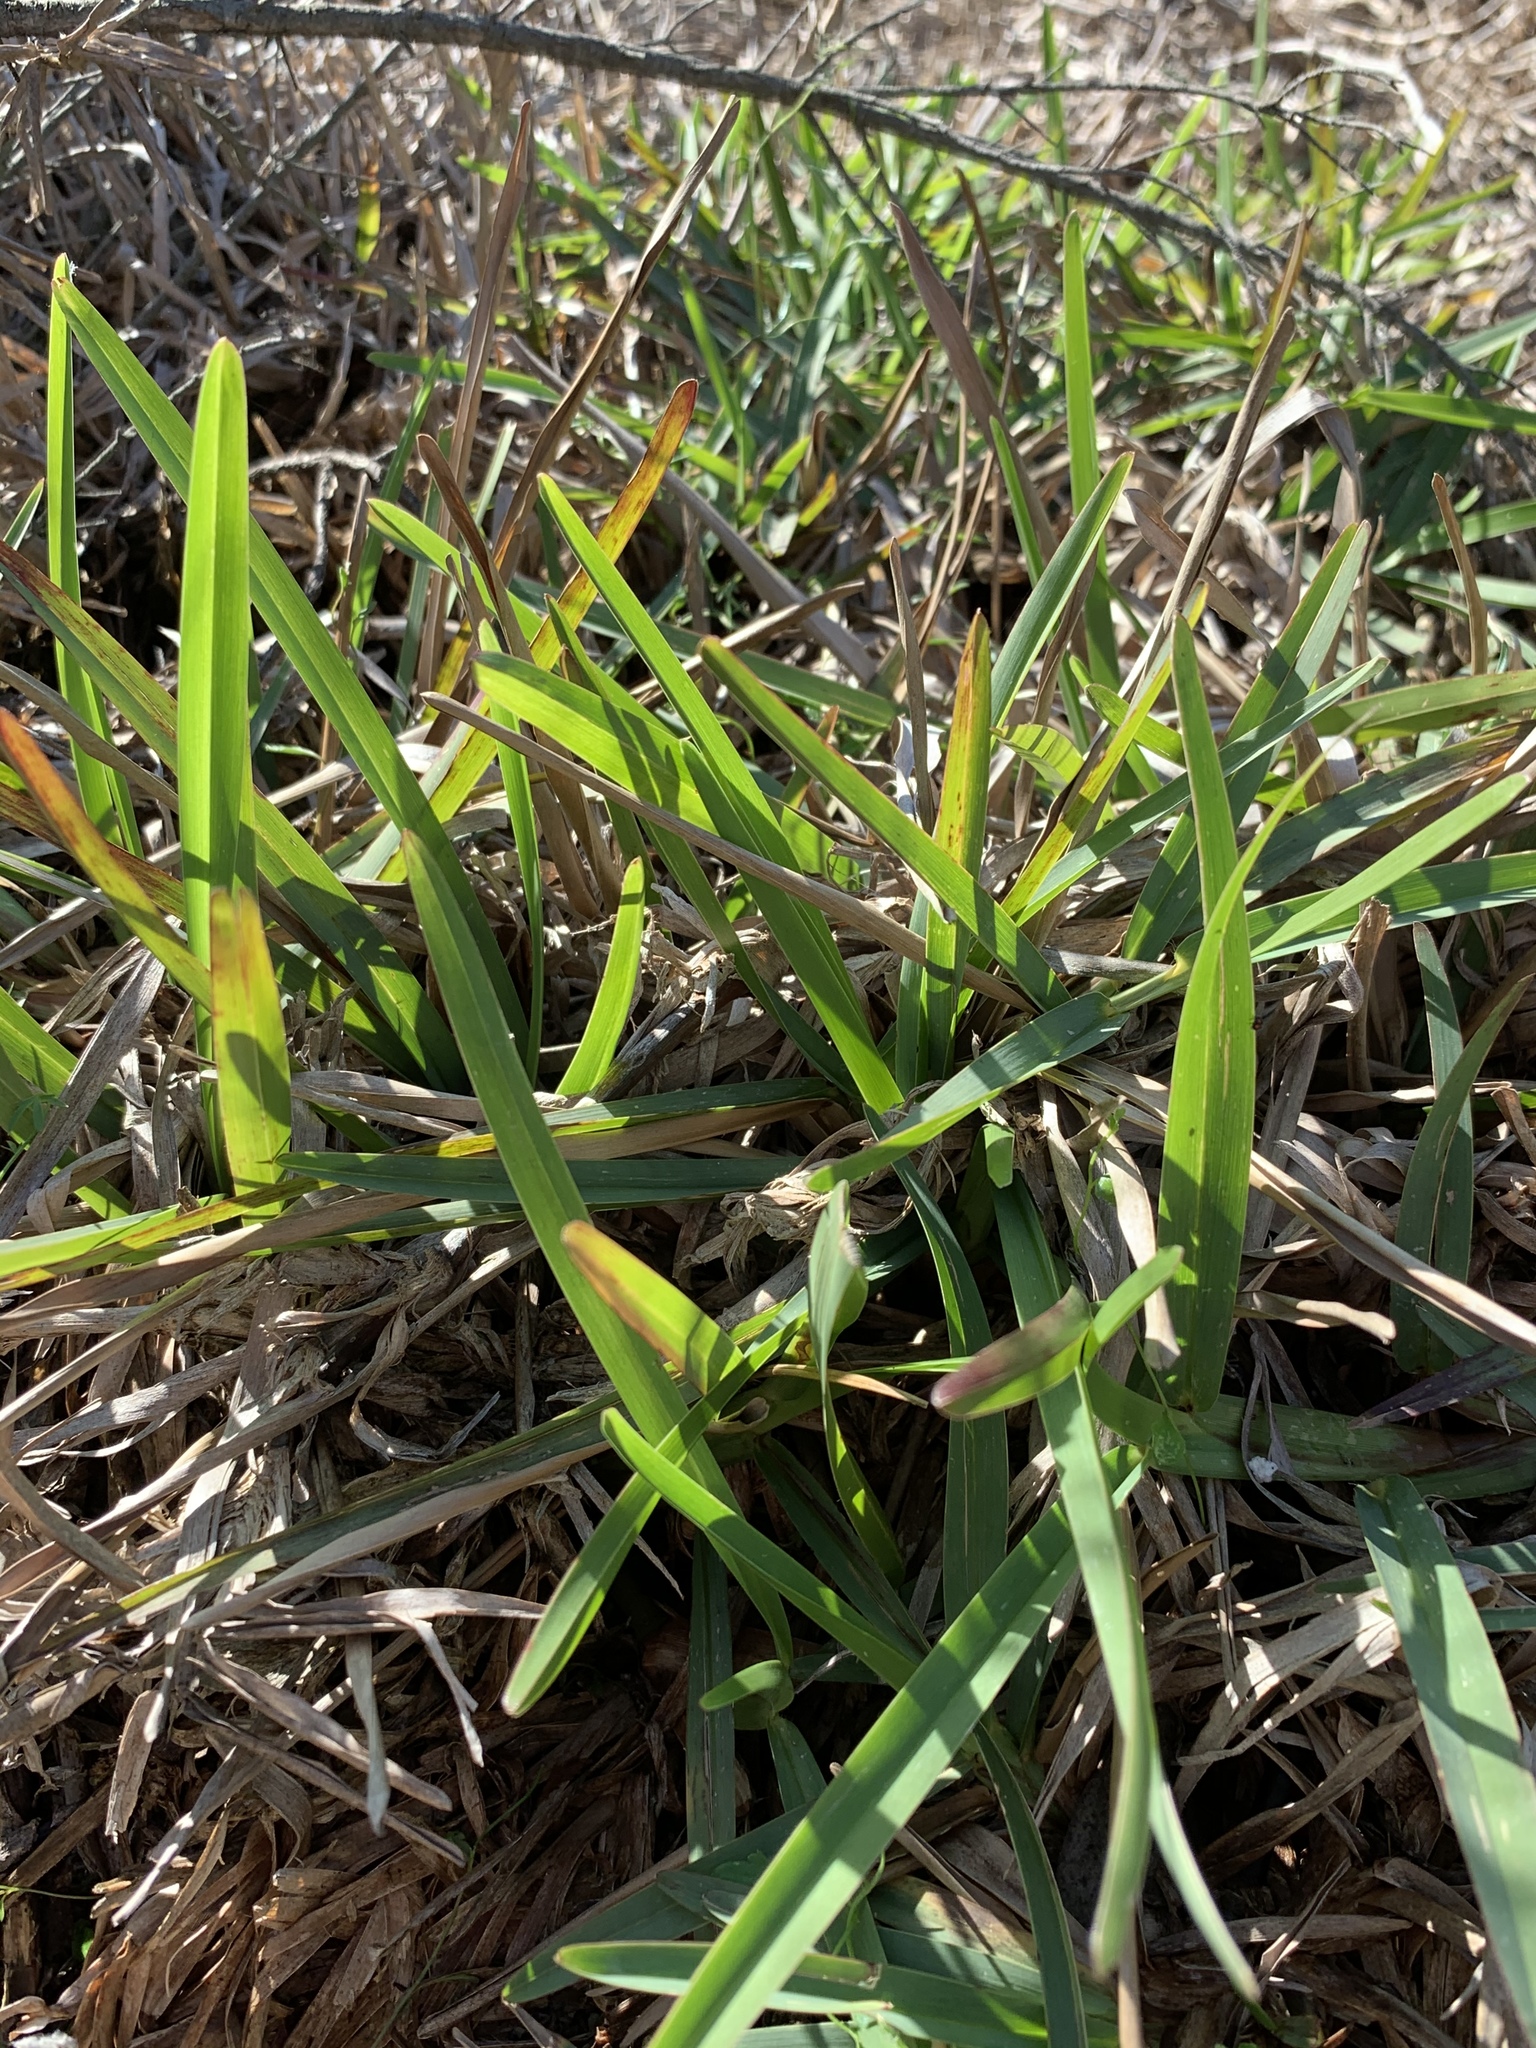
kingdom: Plantae
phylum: Tracheophyta
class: Liliopsida
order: Poales
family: Poaceae
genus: Stenotaphrum
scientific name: Stenotaphrum secundatum
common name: St. augustine grass
